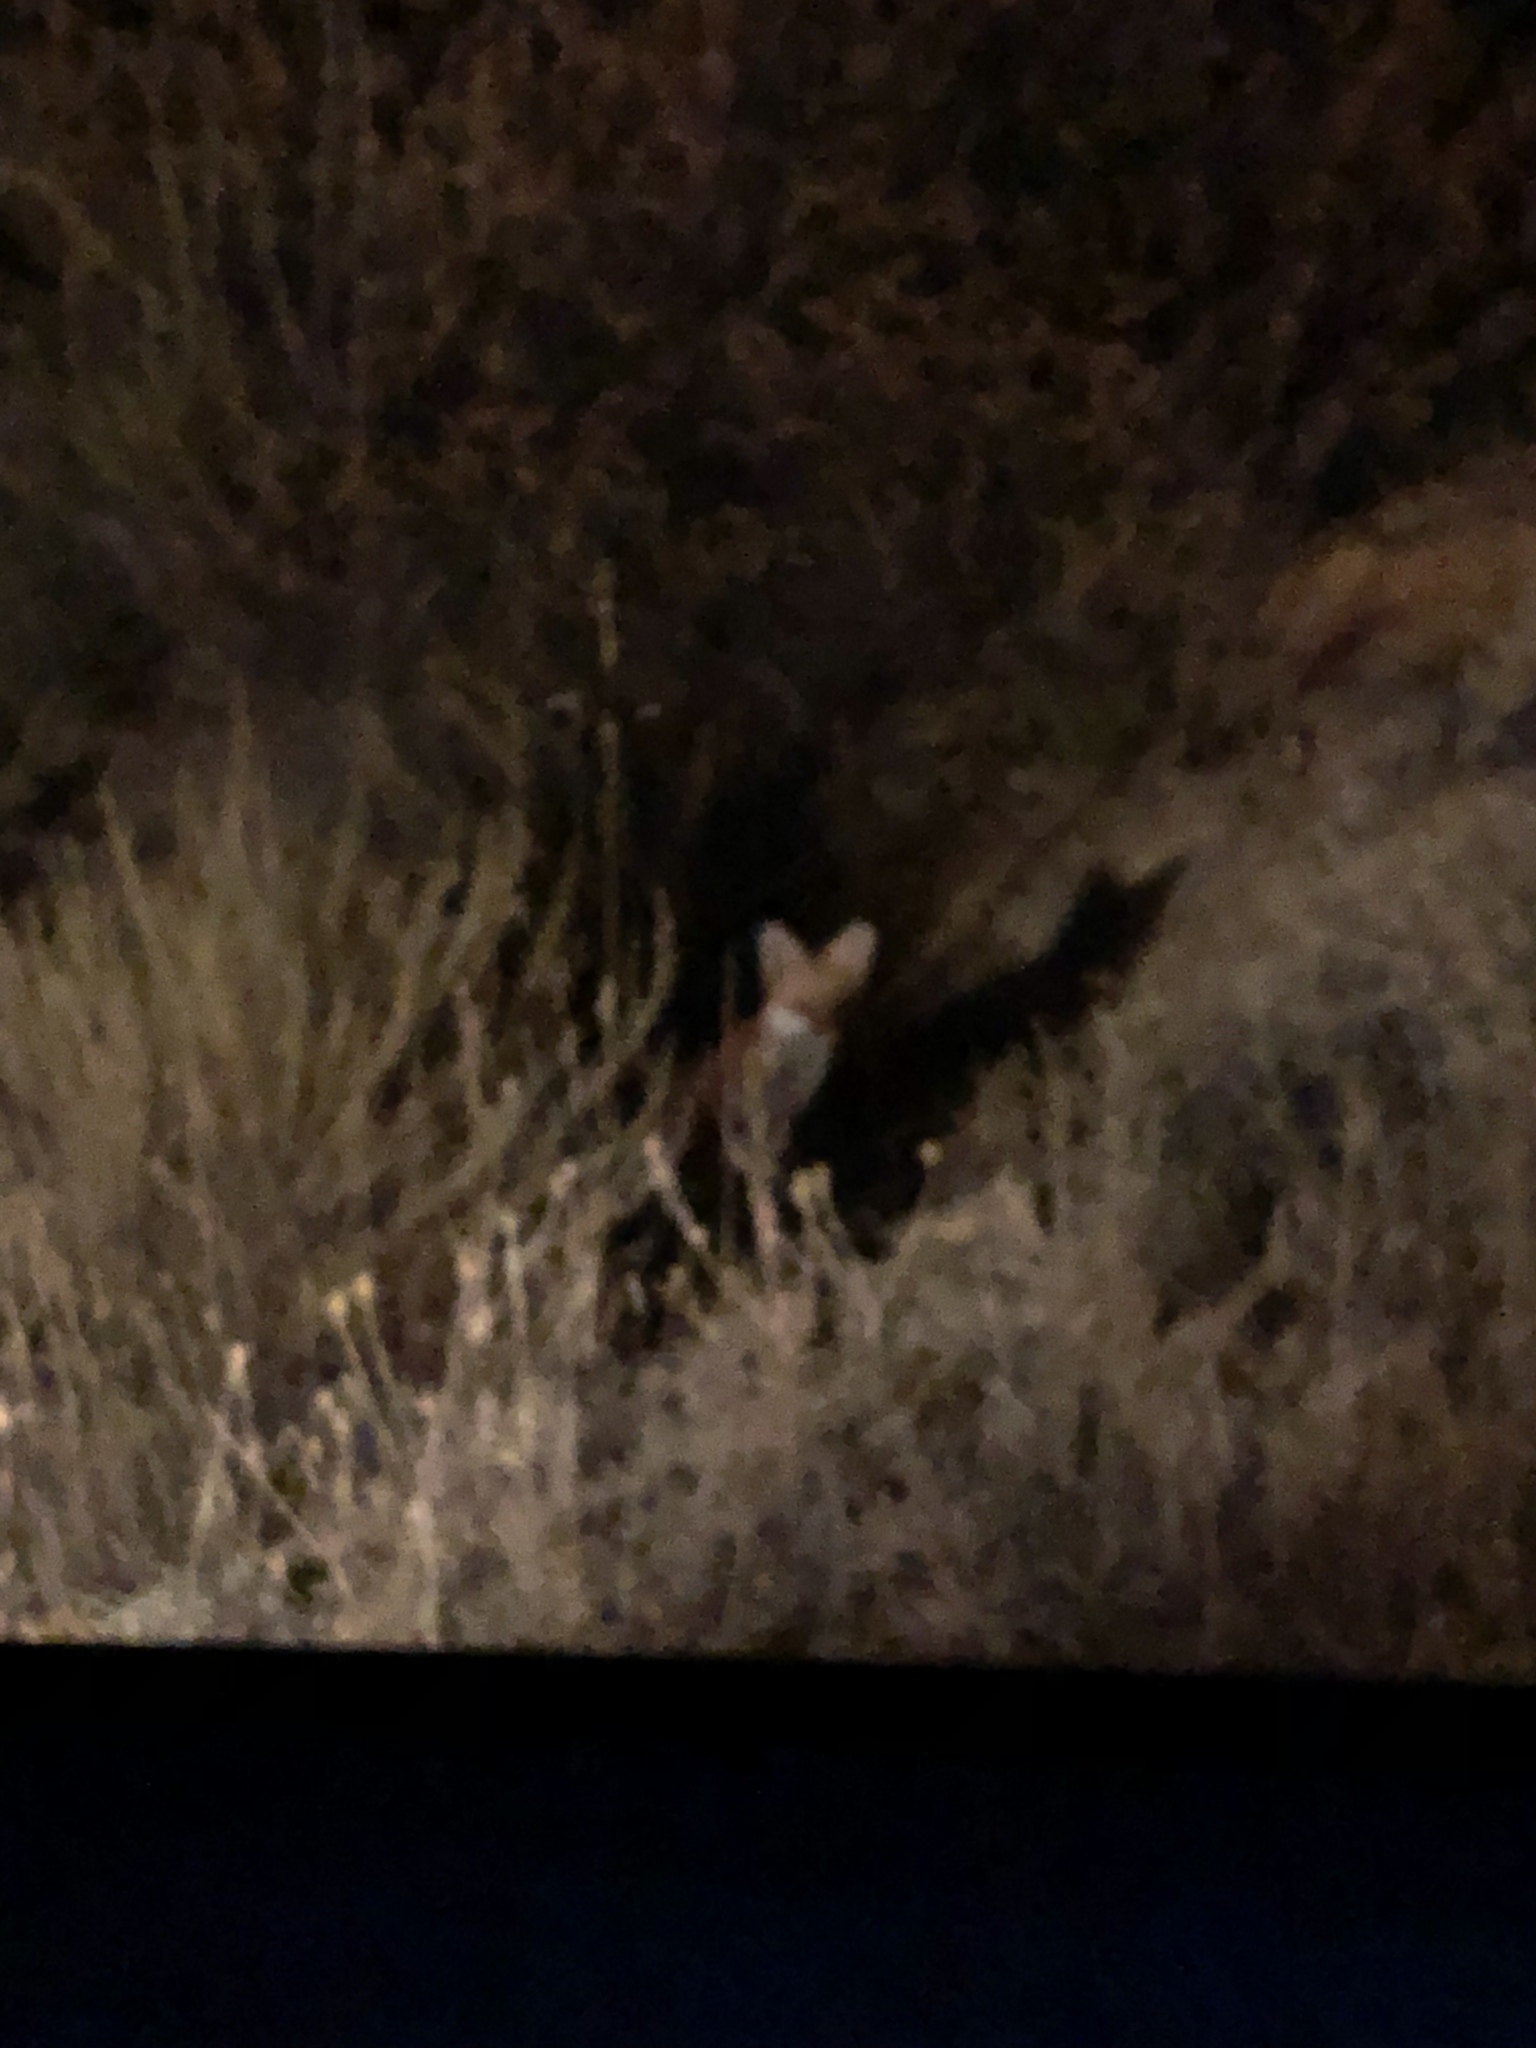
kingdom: Animalia
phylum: Chordata
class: Mammalia
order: Carnivora
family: Canidae
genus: Vulpes
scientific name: Vulpes vulpes
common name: Red fox
